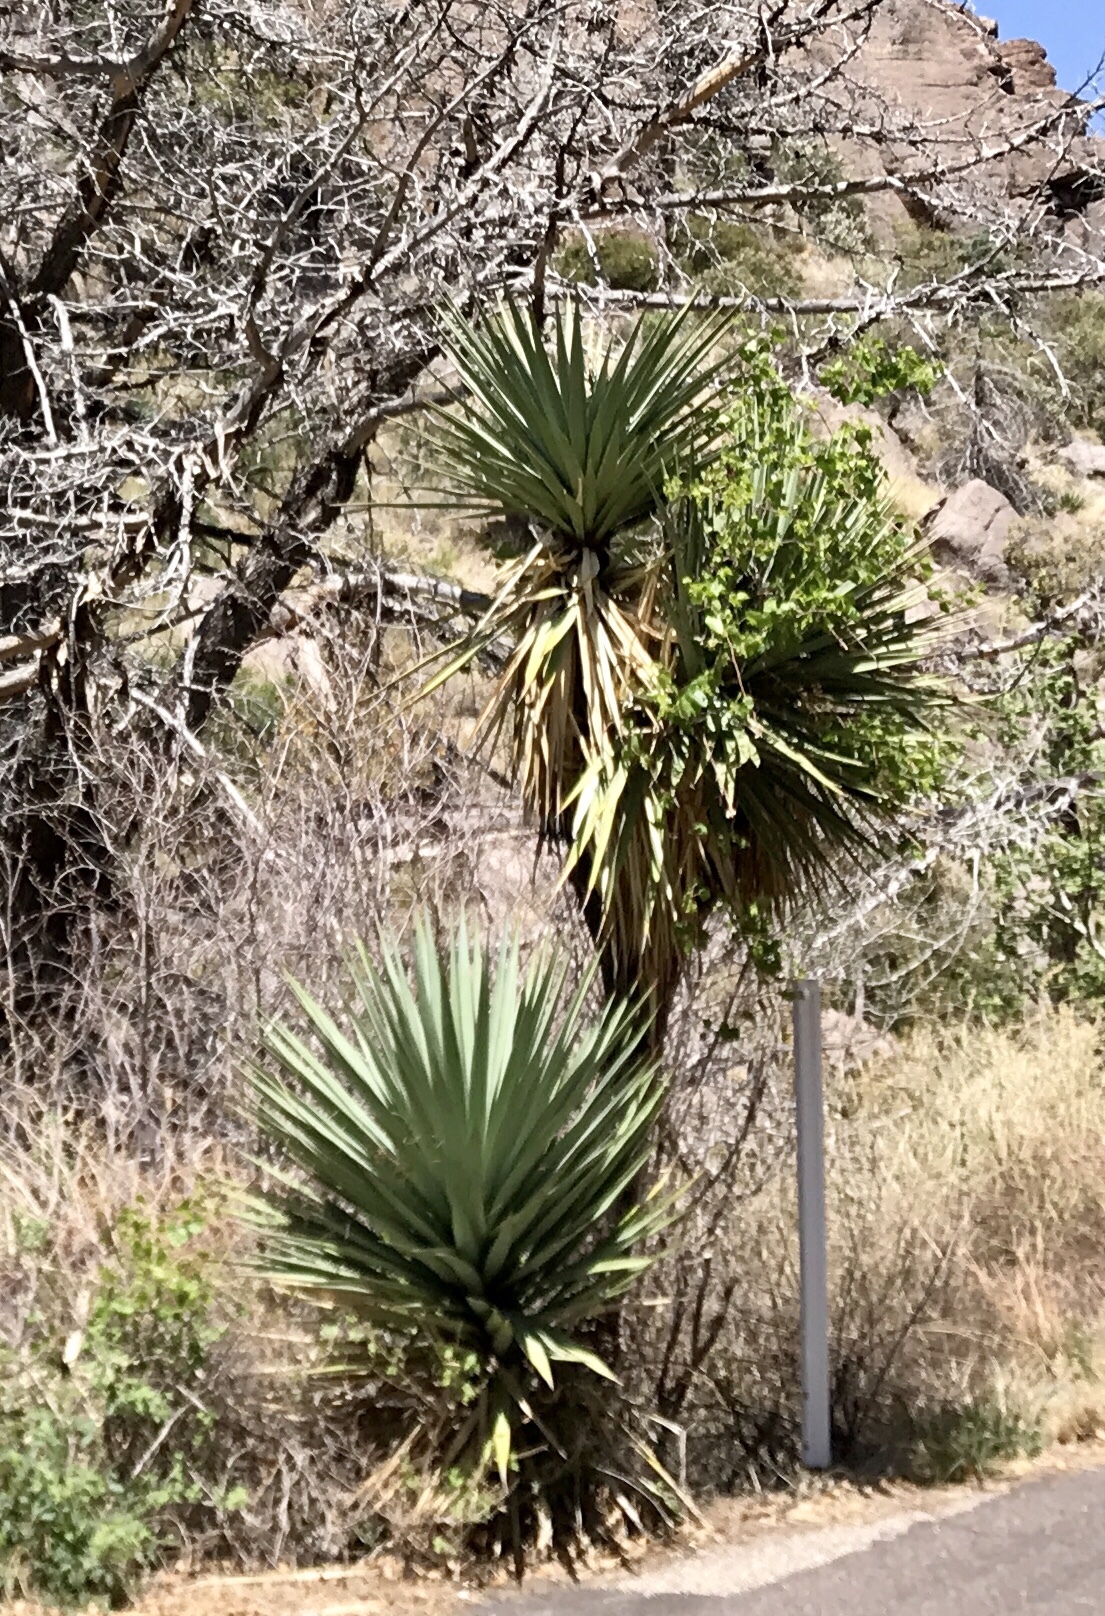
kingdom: Plantae
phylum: Tracheophyta
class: Liliopsida
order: Asparagales
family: Asparagaceae
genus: Yucca
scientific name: Yucca madrensis
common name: Hoary yucca
